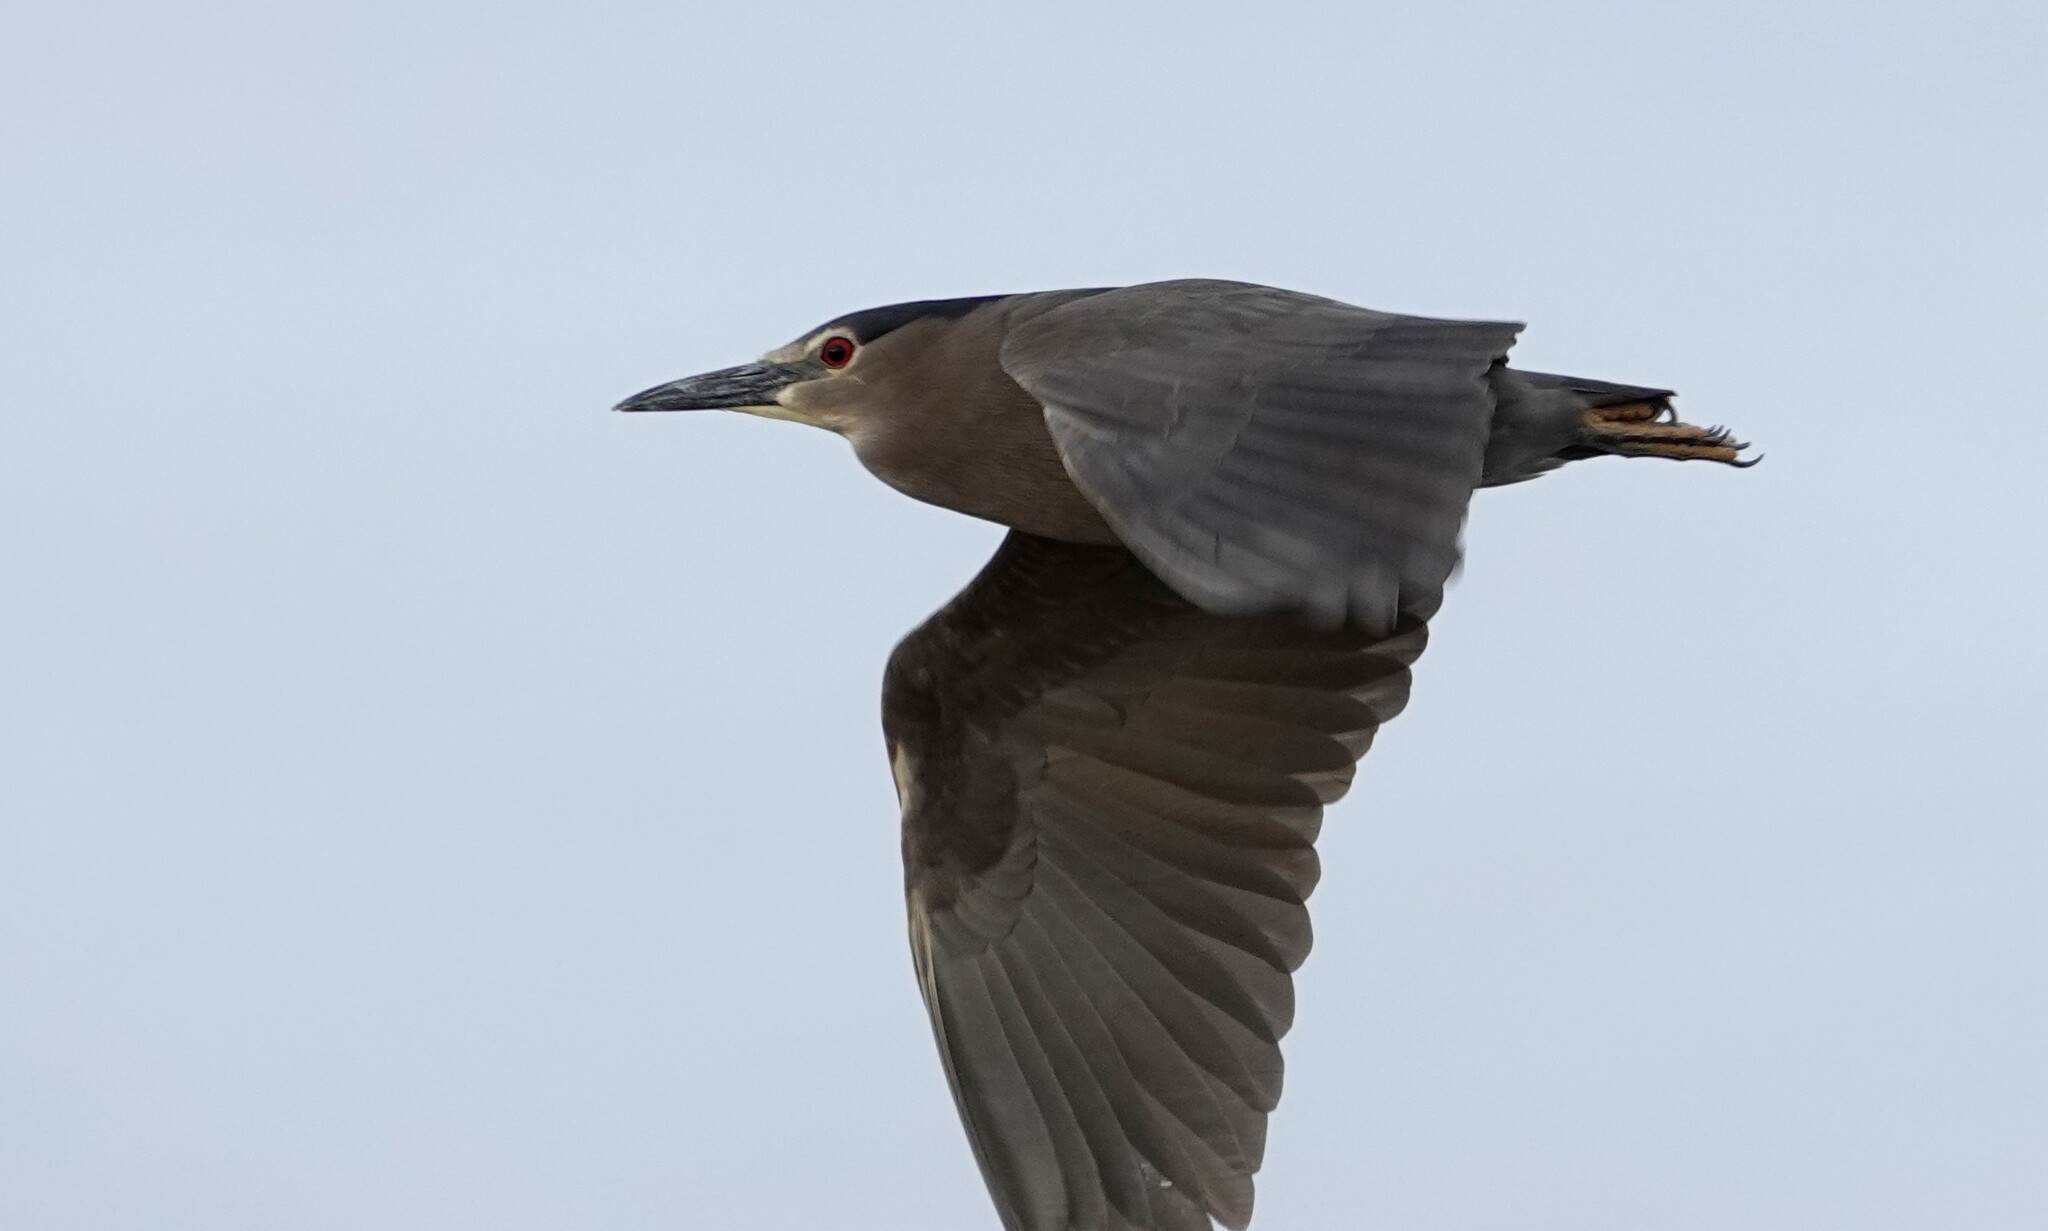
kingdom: Animalia
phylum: Chordata
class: Aves
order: Pelecaniformes
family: Ardeidae
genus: Nycticorax
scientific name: Nycticorax nycticorax
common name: Black-crowned night heron
